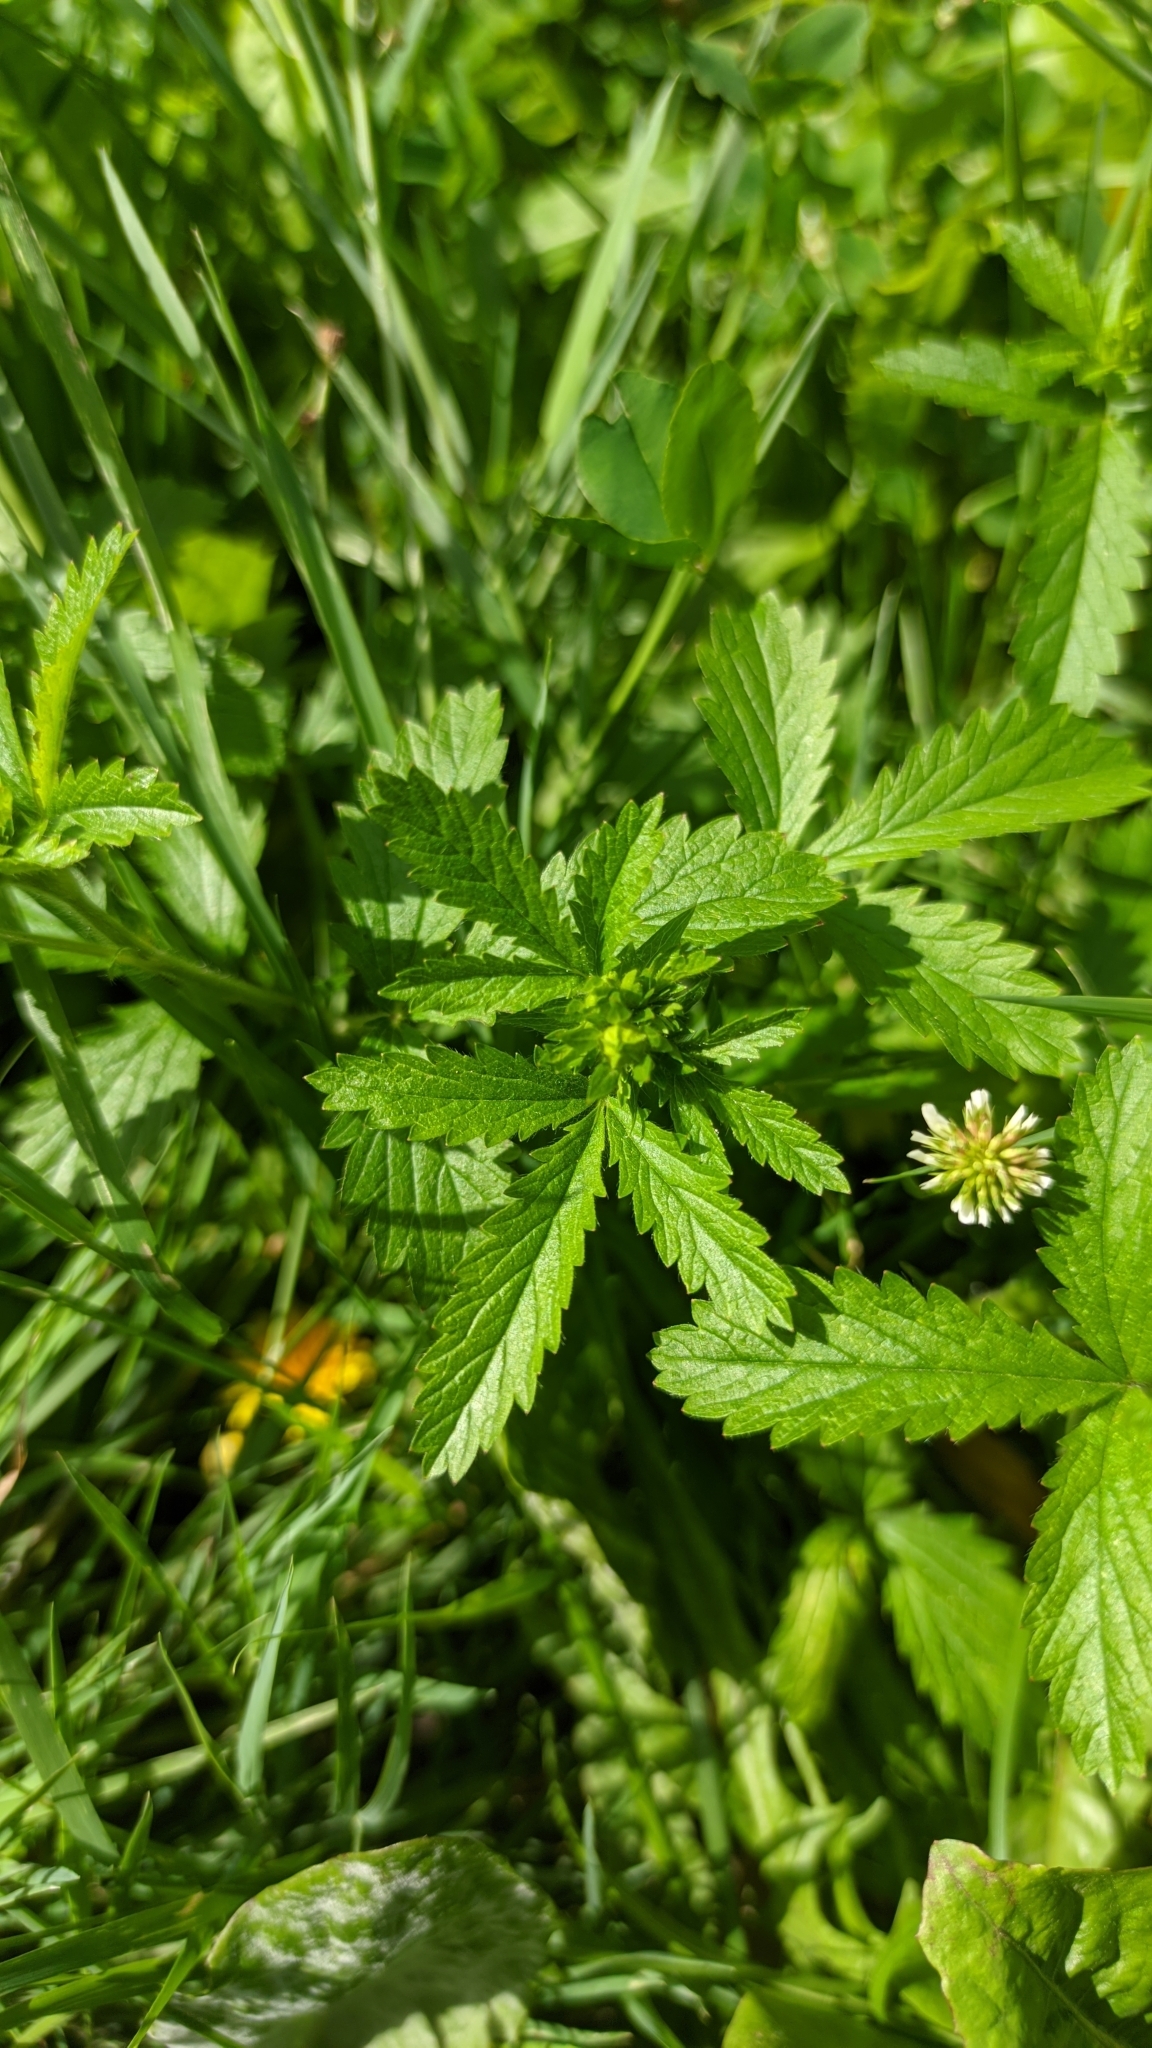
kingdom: Plantae
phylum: Tracheophyta
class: Magnoliopsida
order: Rosales
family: Rosaceae
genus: Potentilla
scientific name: Potentilla norvegica
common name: Ternate-leaved cinquefoil
